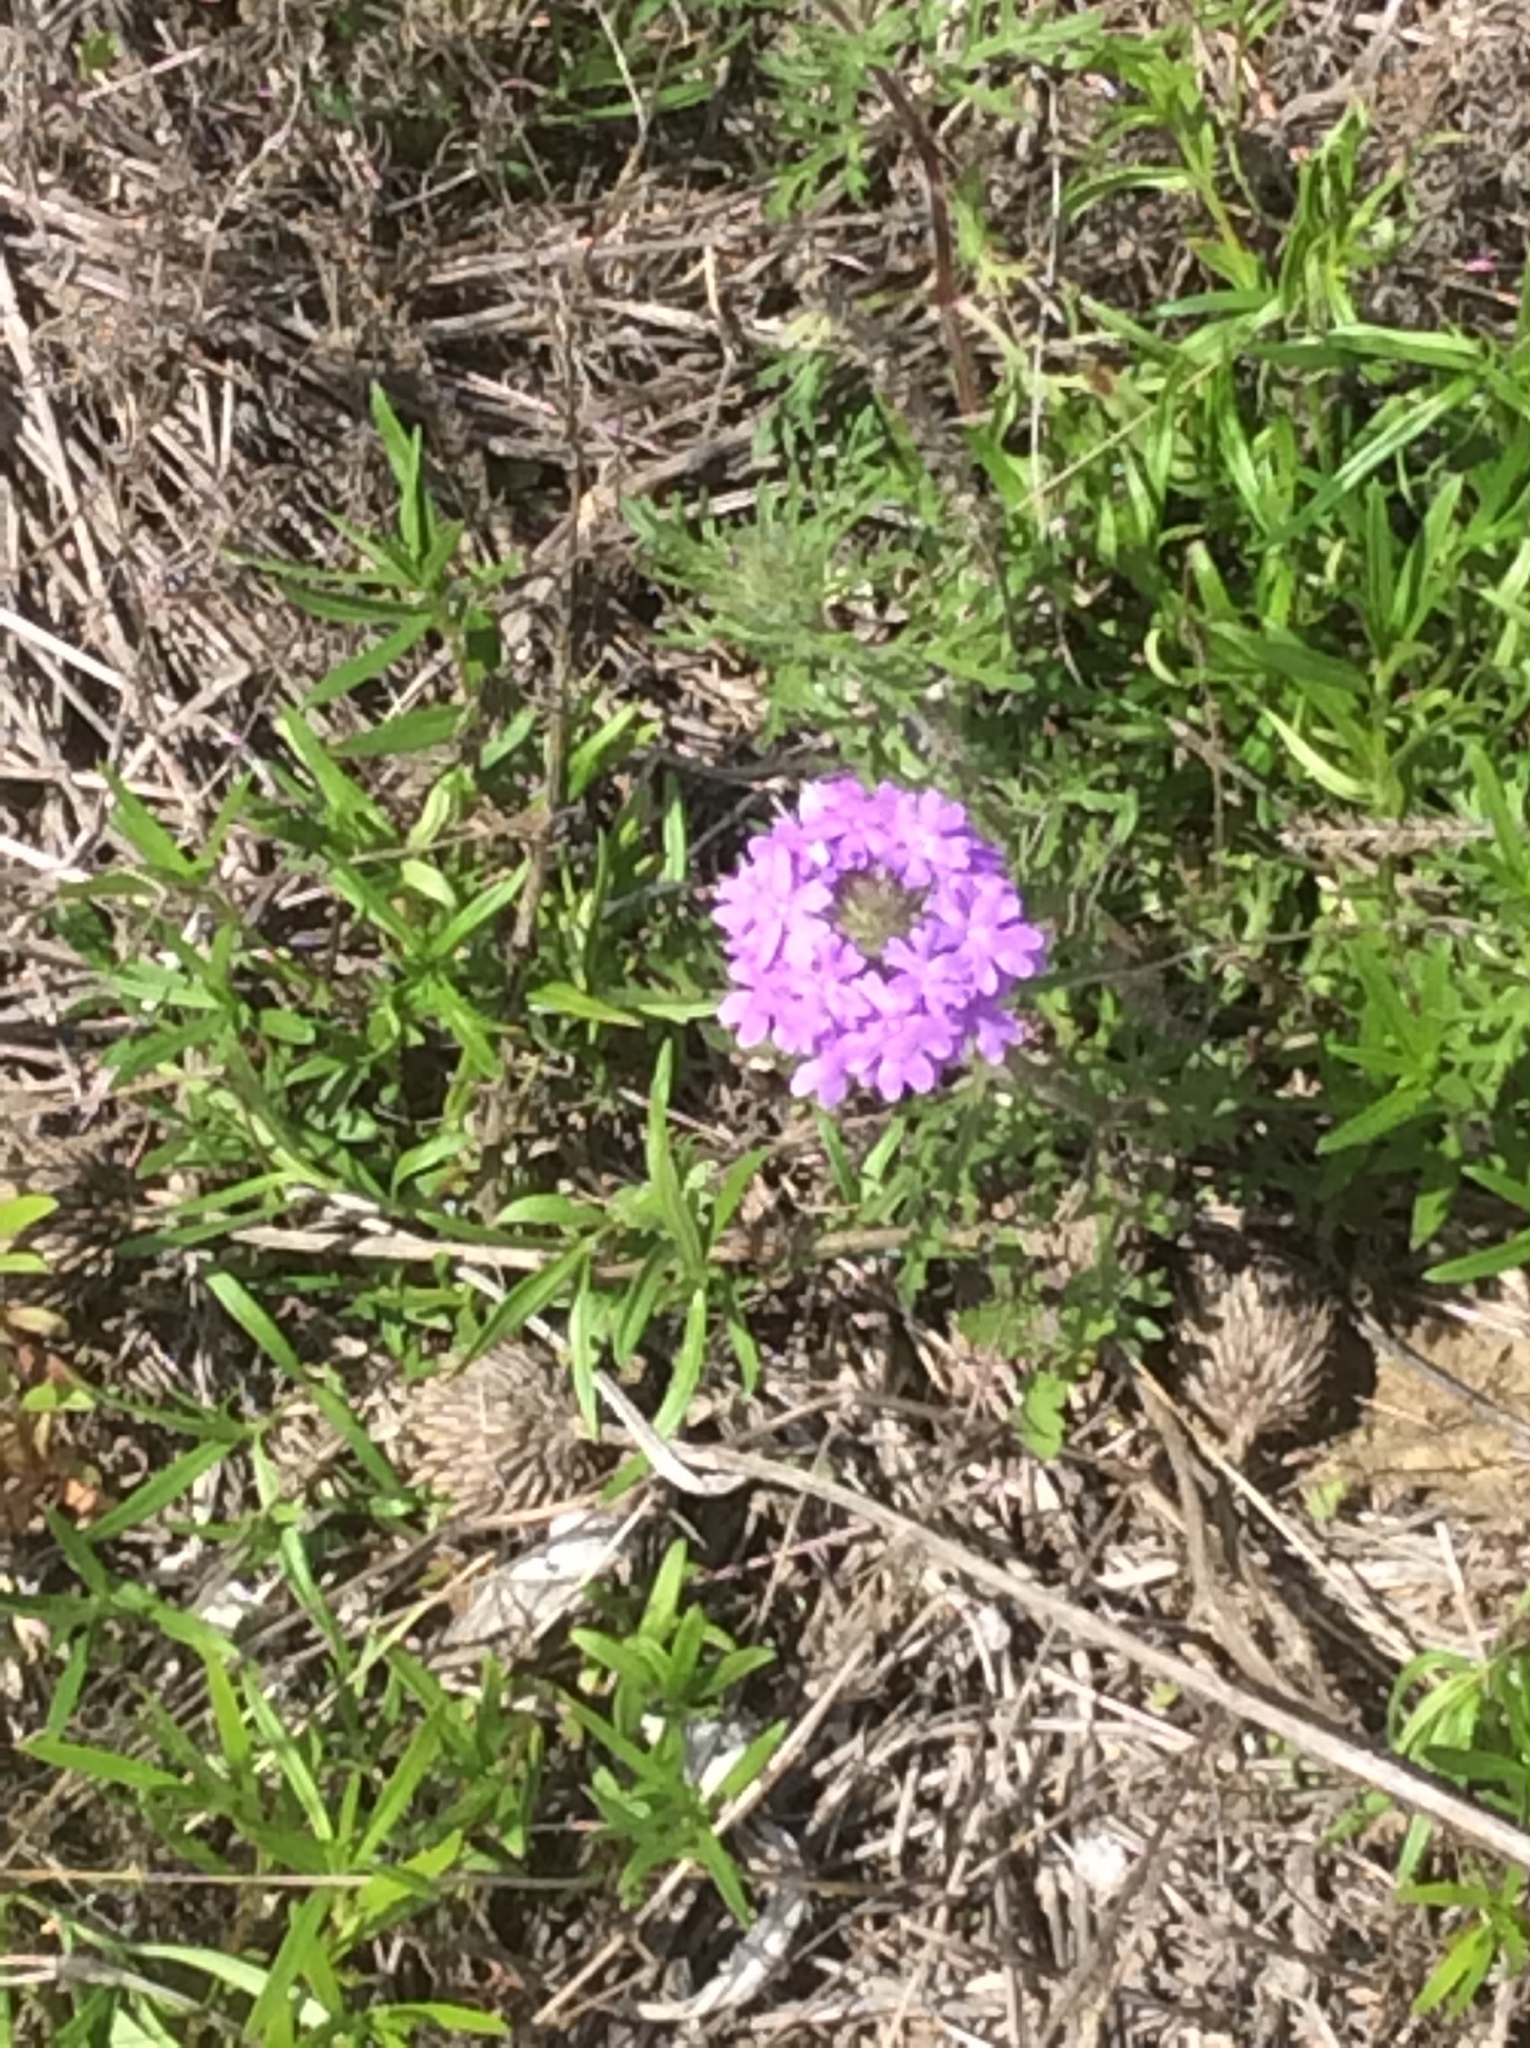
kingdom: Plantae
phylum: Tracheophyta
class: Magnoliopsida
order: Lamiales
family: Verbenaceae
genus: Verbena
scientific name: Verbena bipinnatifida
